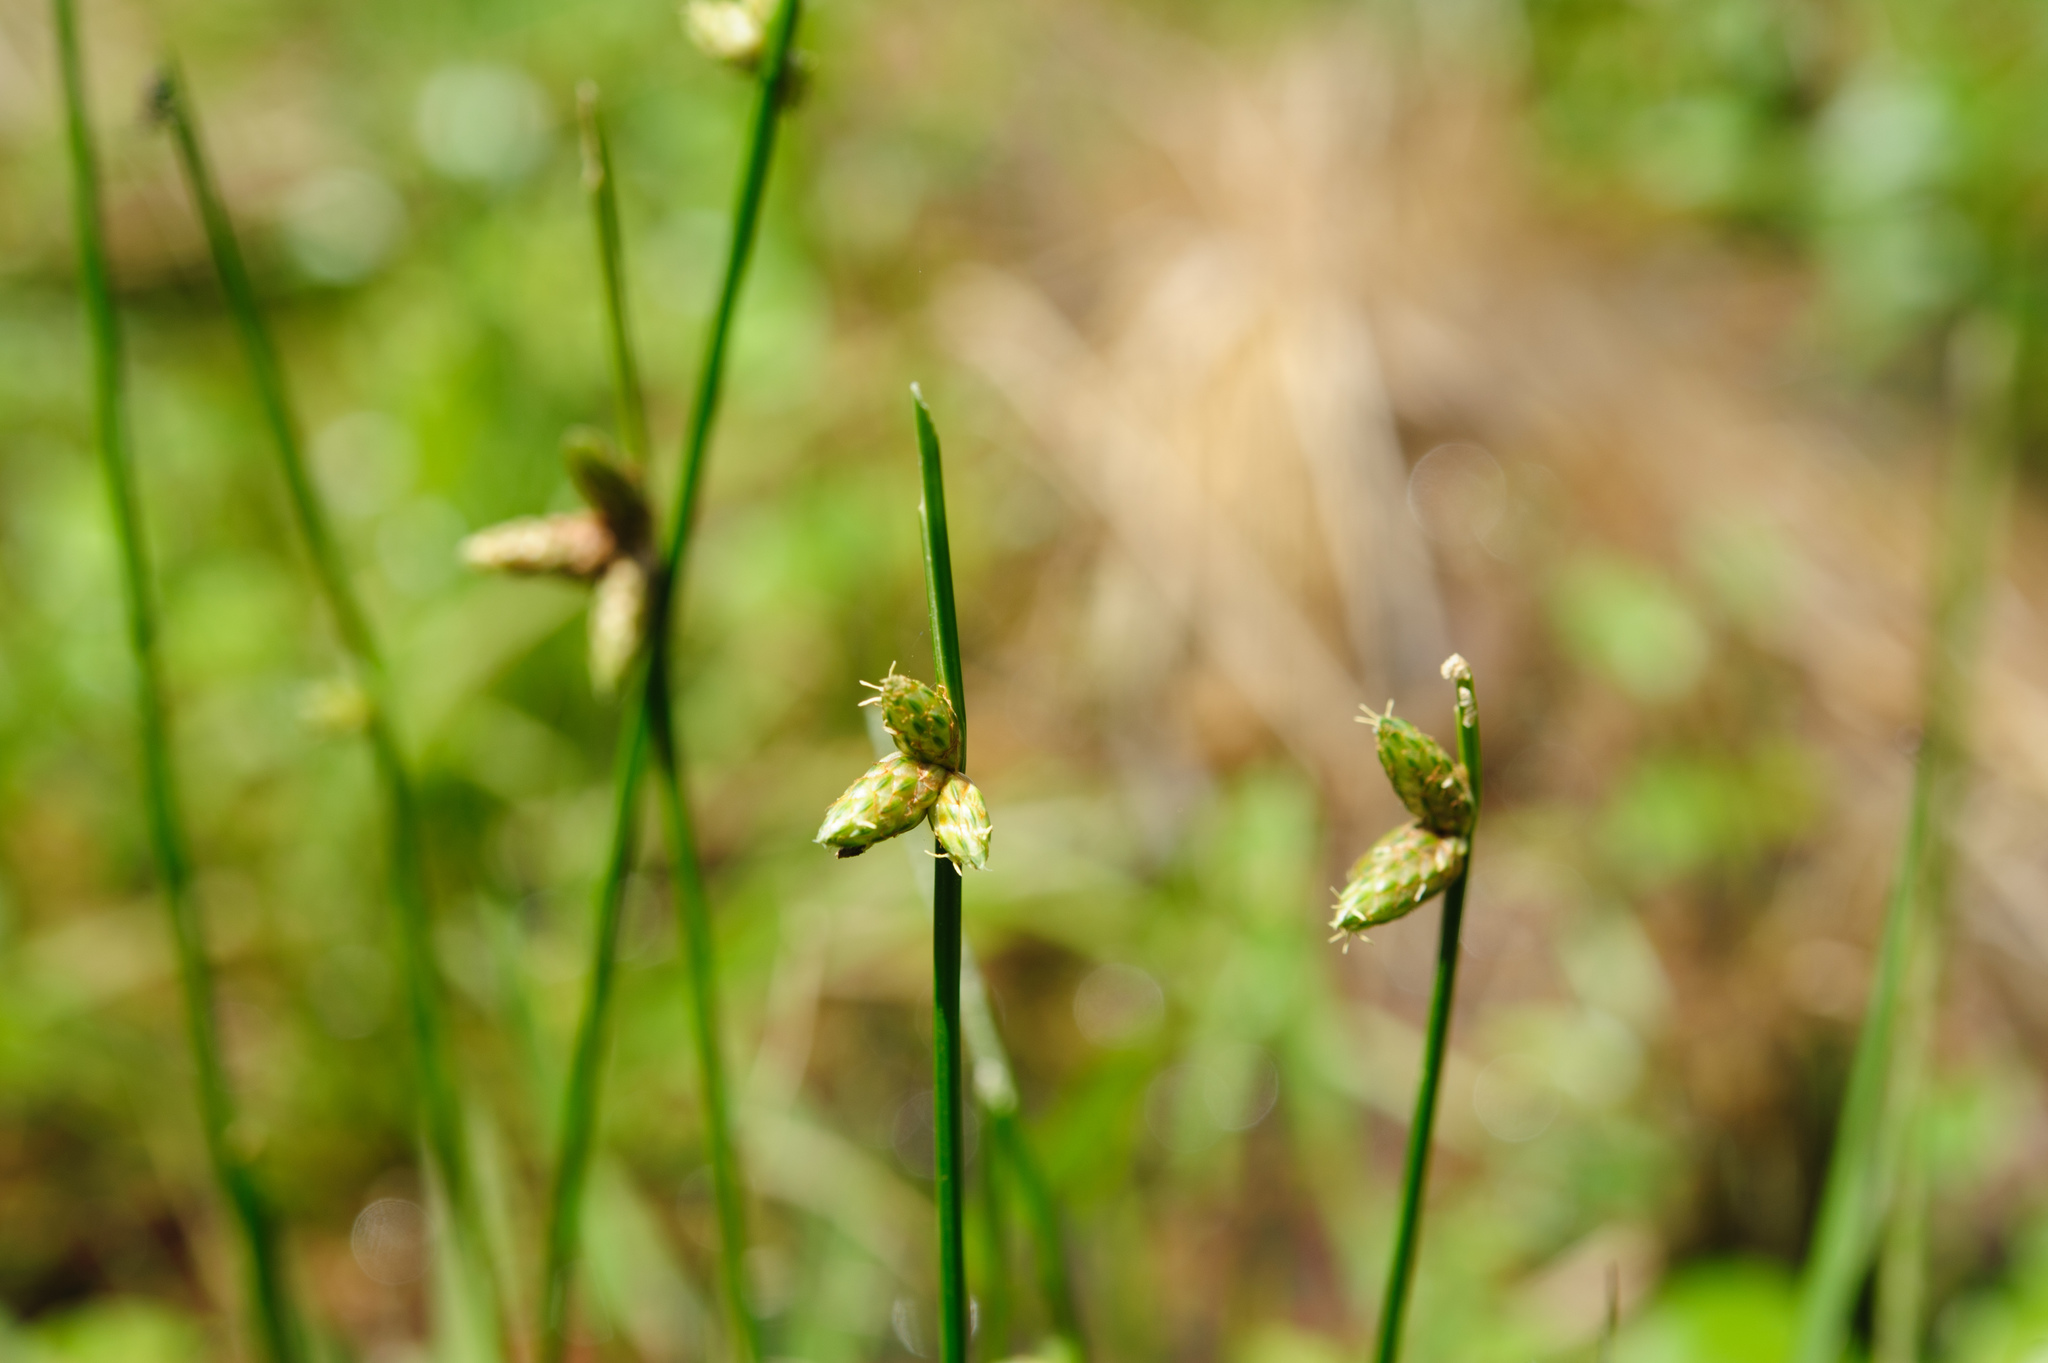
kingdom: Plantae
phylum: Tracheophyta
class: Liliopsida
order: Poales
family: Cyperaceae
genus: Schoenoplectiella
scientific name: Schoenoplectiella juncoides
